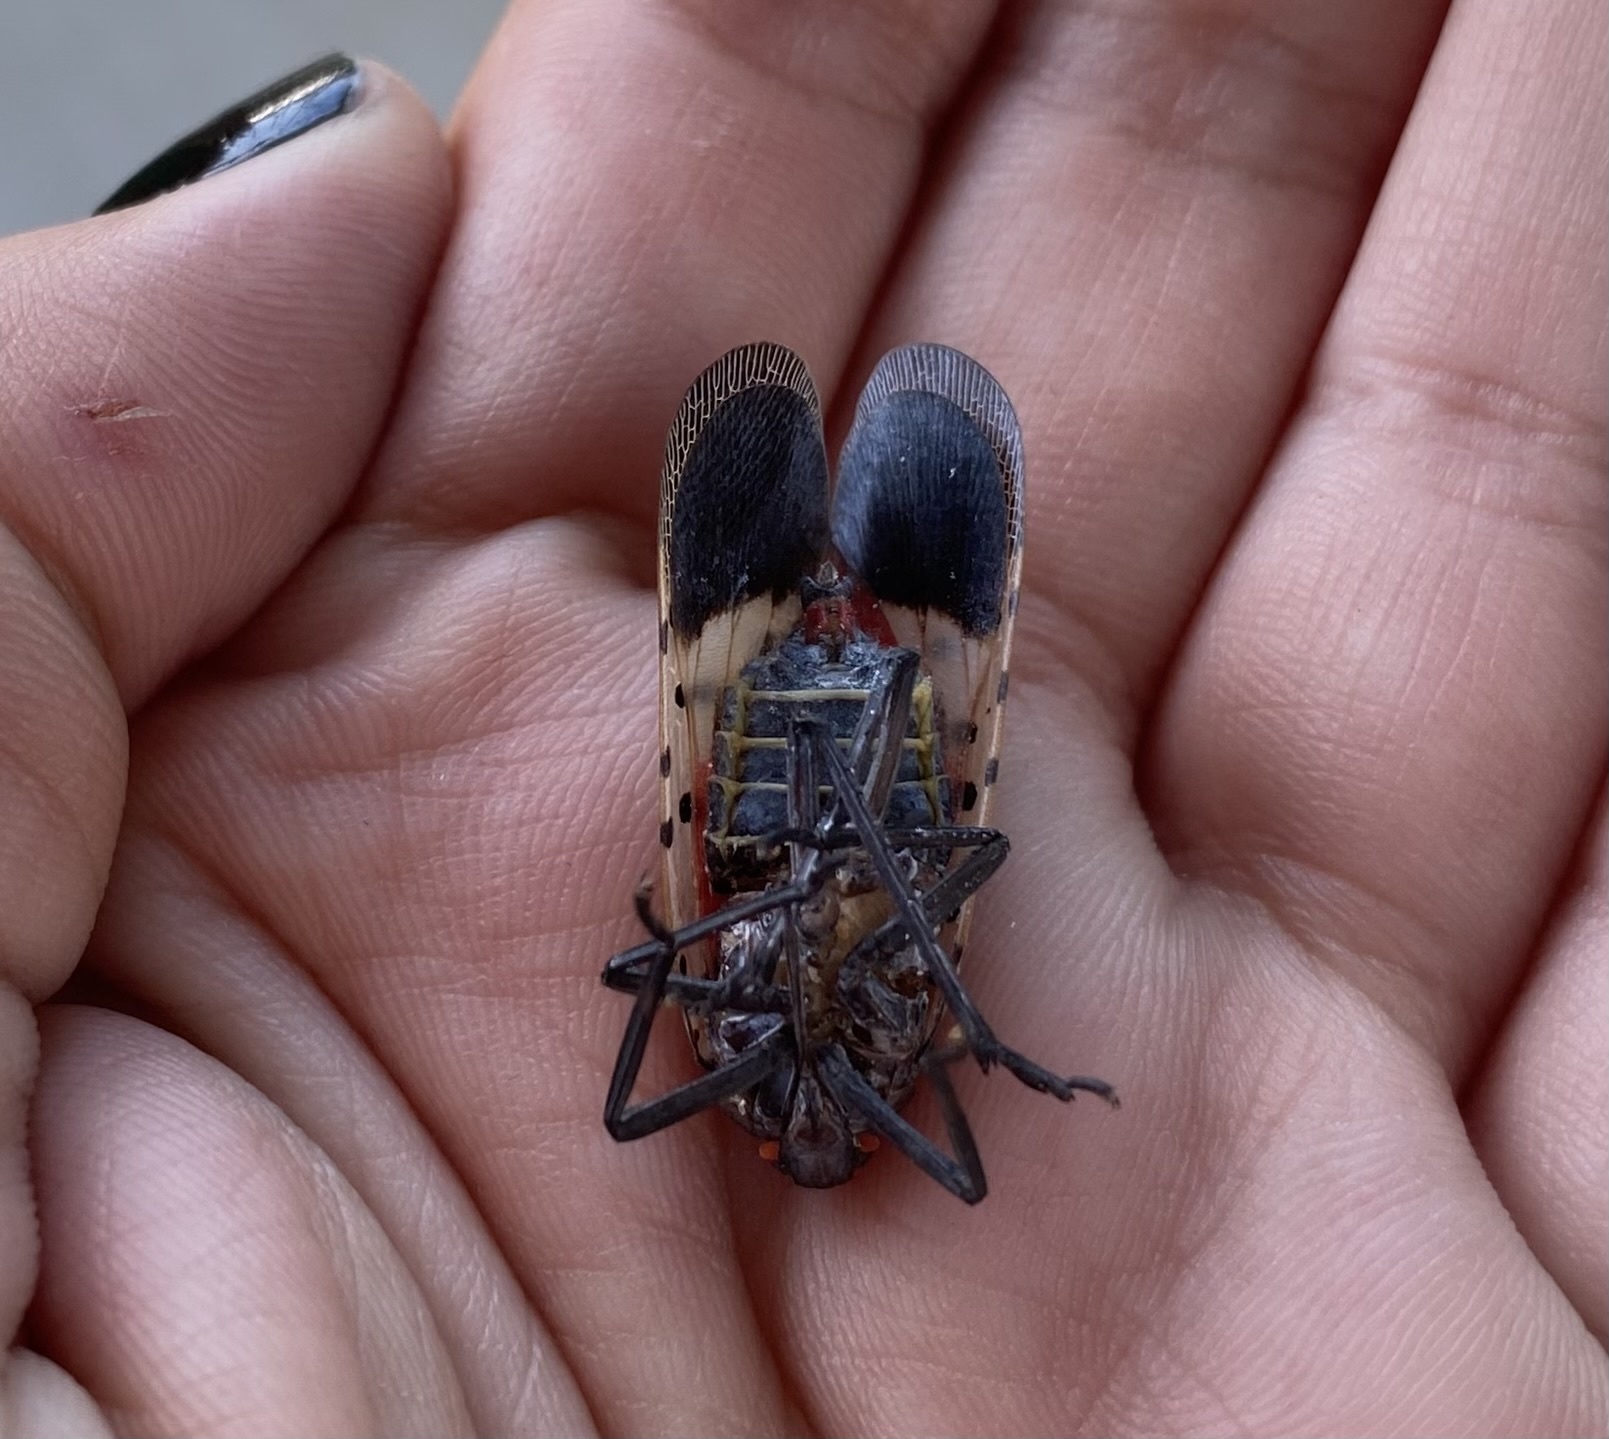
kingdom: Animalia
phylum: Arthropoda
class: Insecta
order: Hemiptera
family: Fulgoridae
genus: Lycorma
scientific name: Lycorma delicatula
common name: Spotted lanternfly
